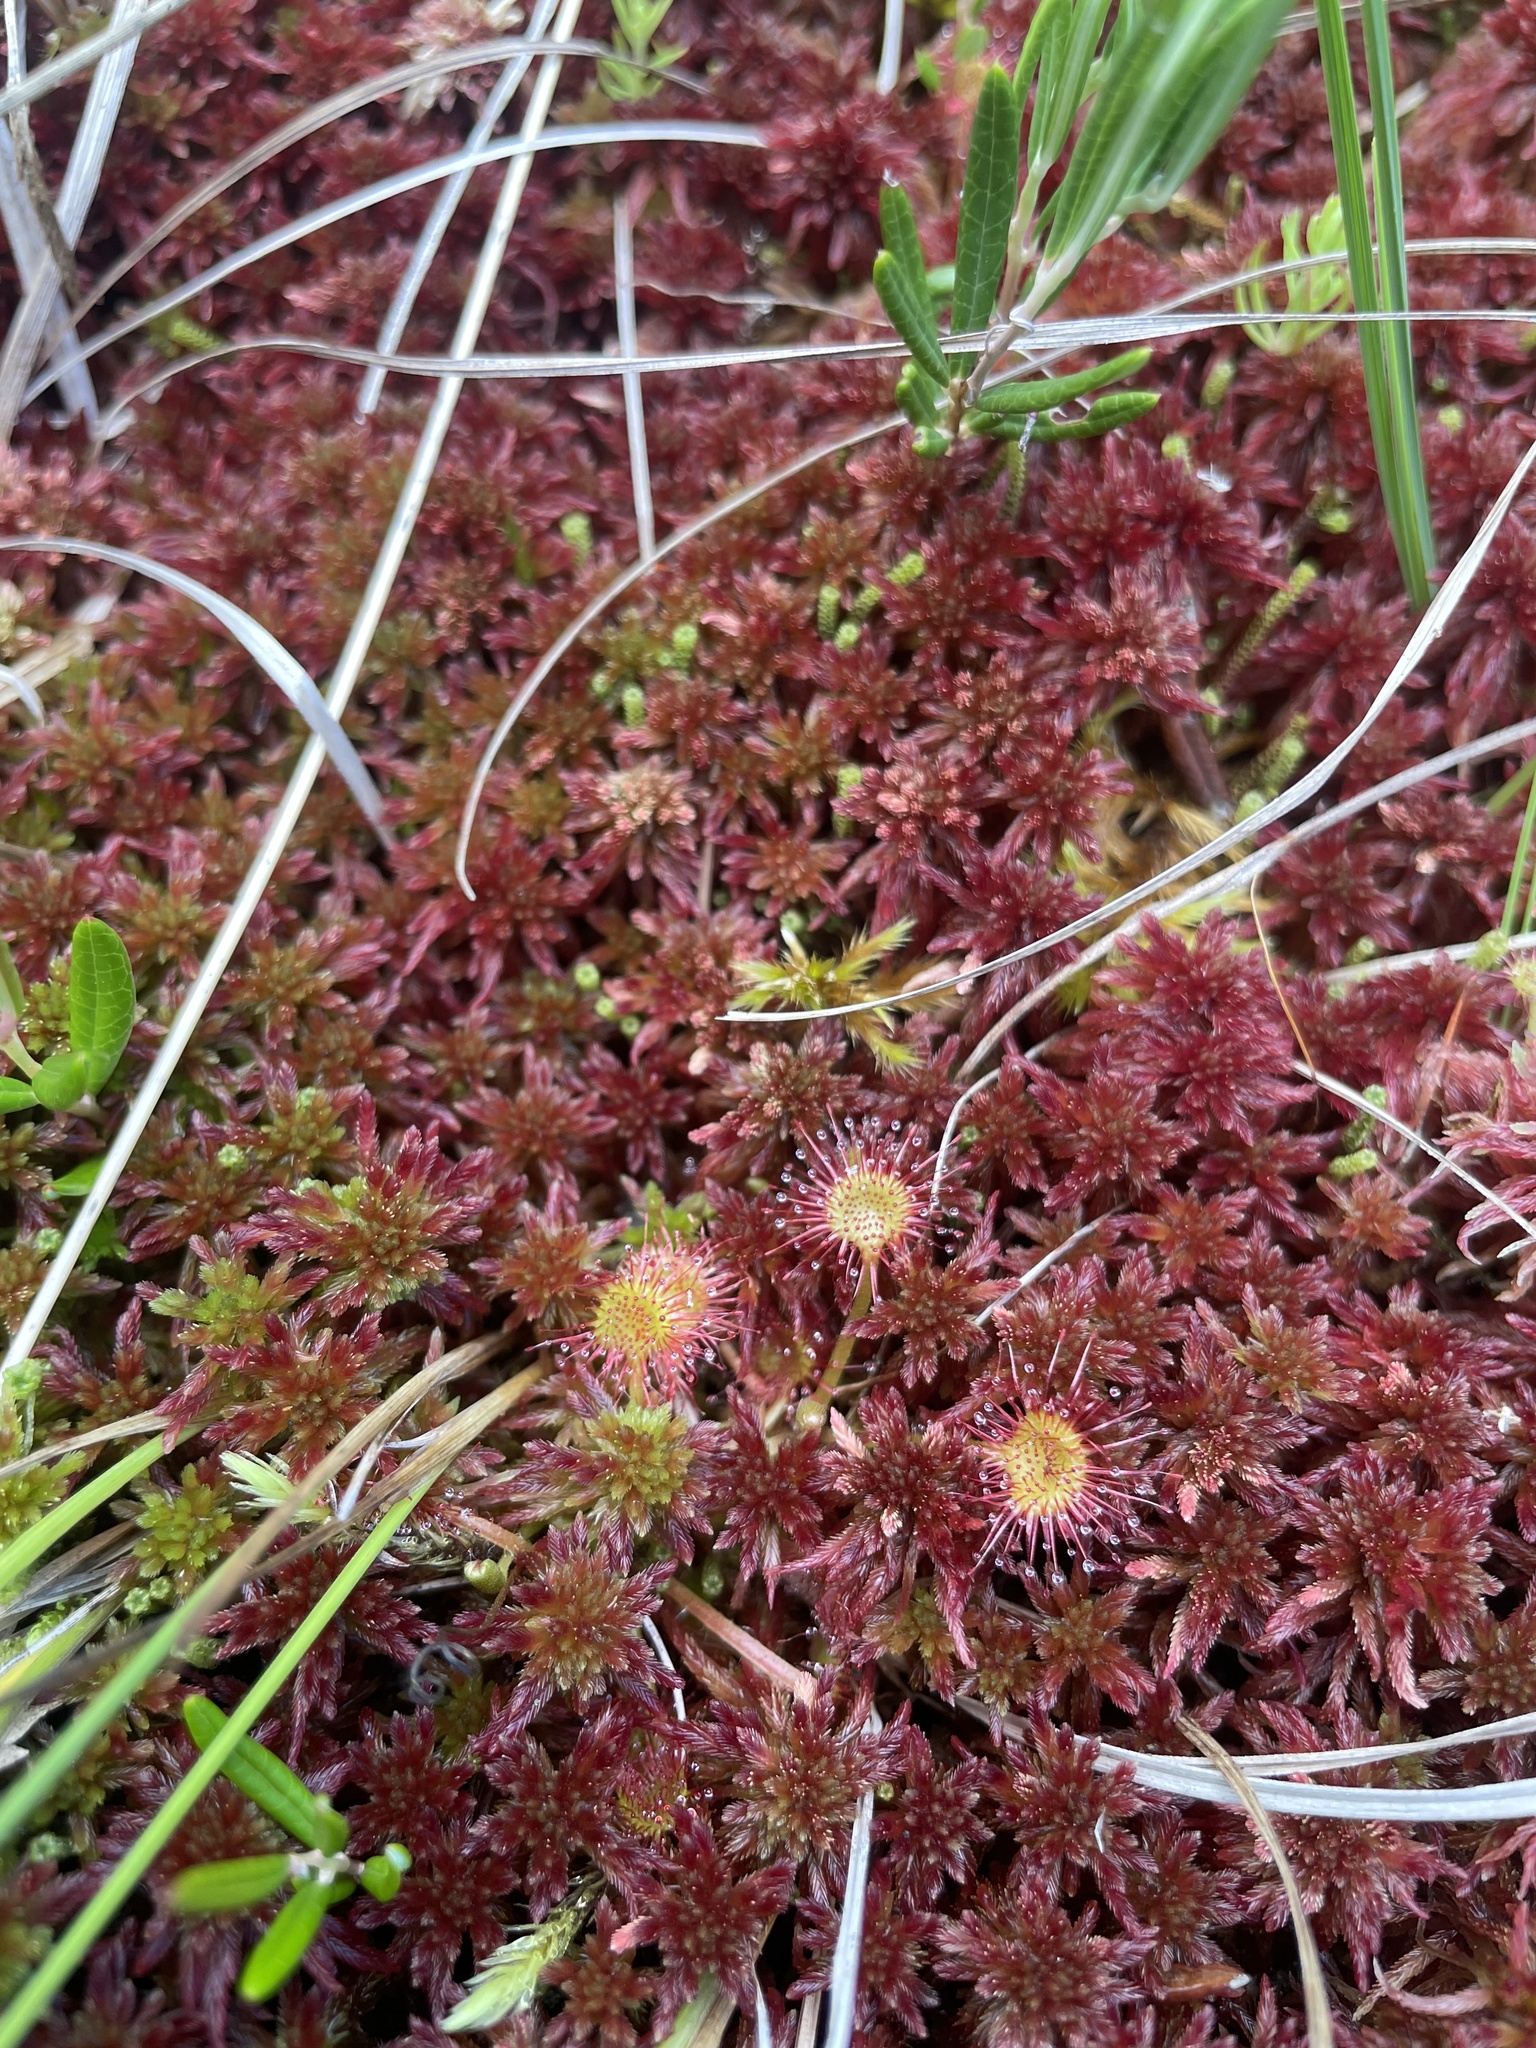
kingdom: Plantae
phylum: Tracheophyta
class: Magnoliopsida
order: Caryophyllales
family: Droseraceae
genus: Drosera
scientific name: Drosera rotundifolia
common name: Round-leaved sundew
